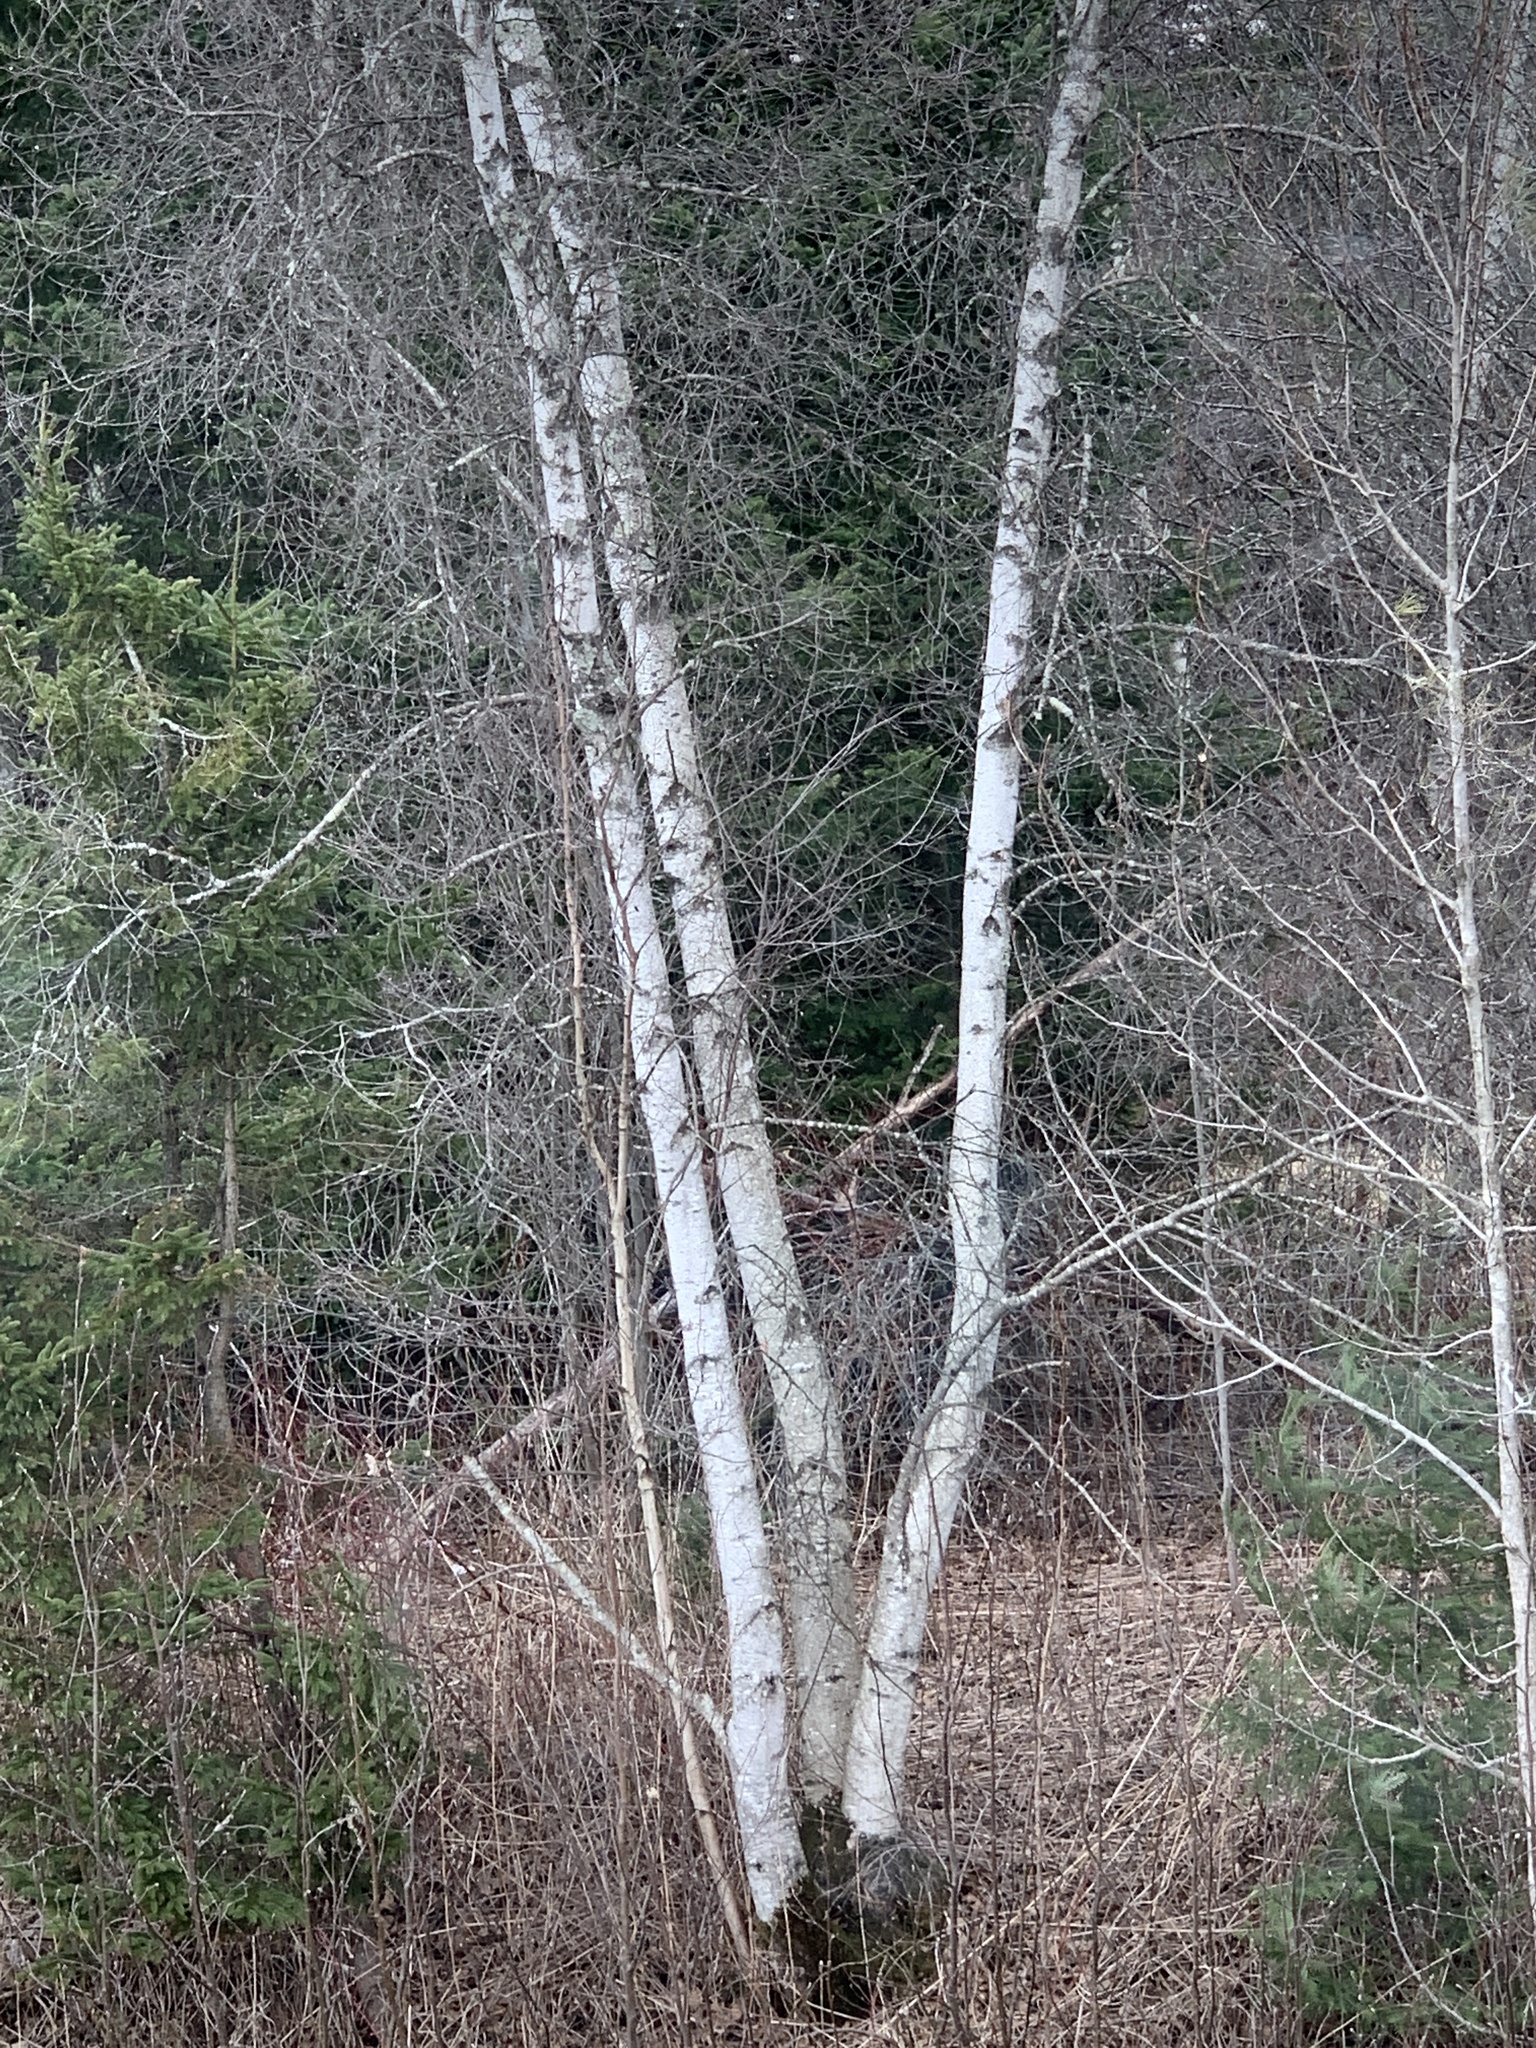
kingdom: Plantae
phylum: Tracheophyta
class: Magnoliopsida
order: Fagales
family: Betulaceae
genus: Betula
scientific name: Betula populifolia
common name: Fire birch
